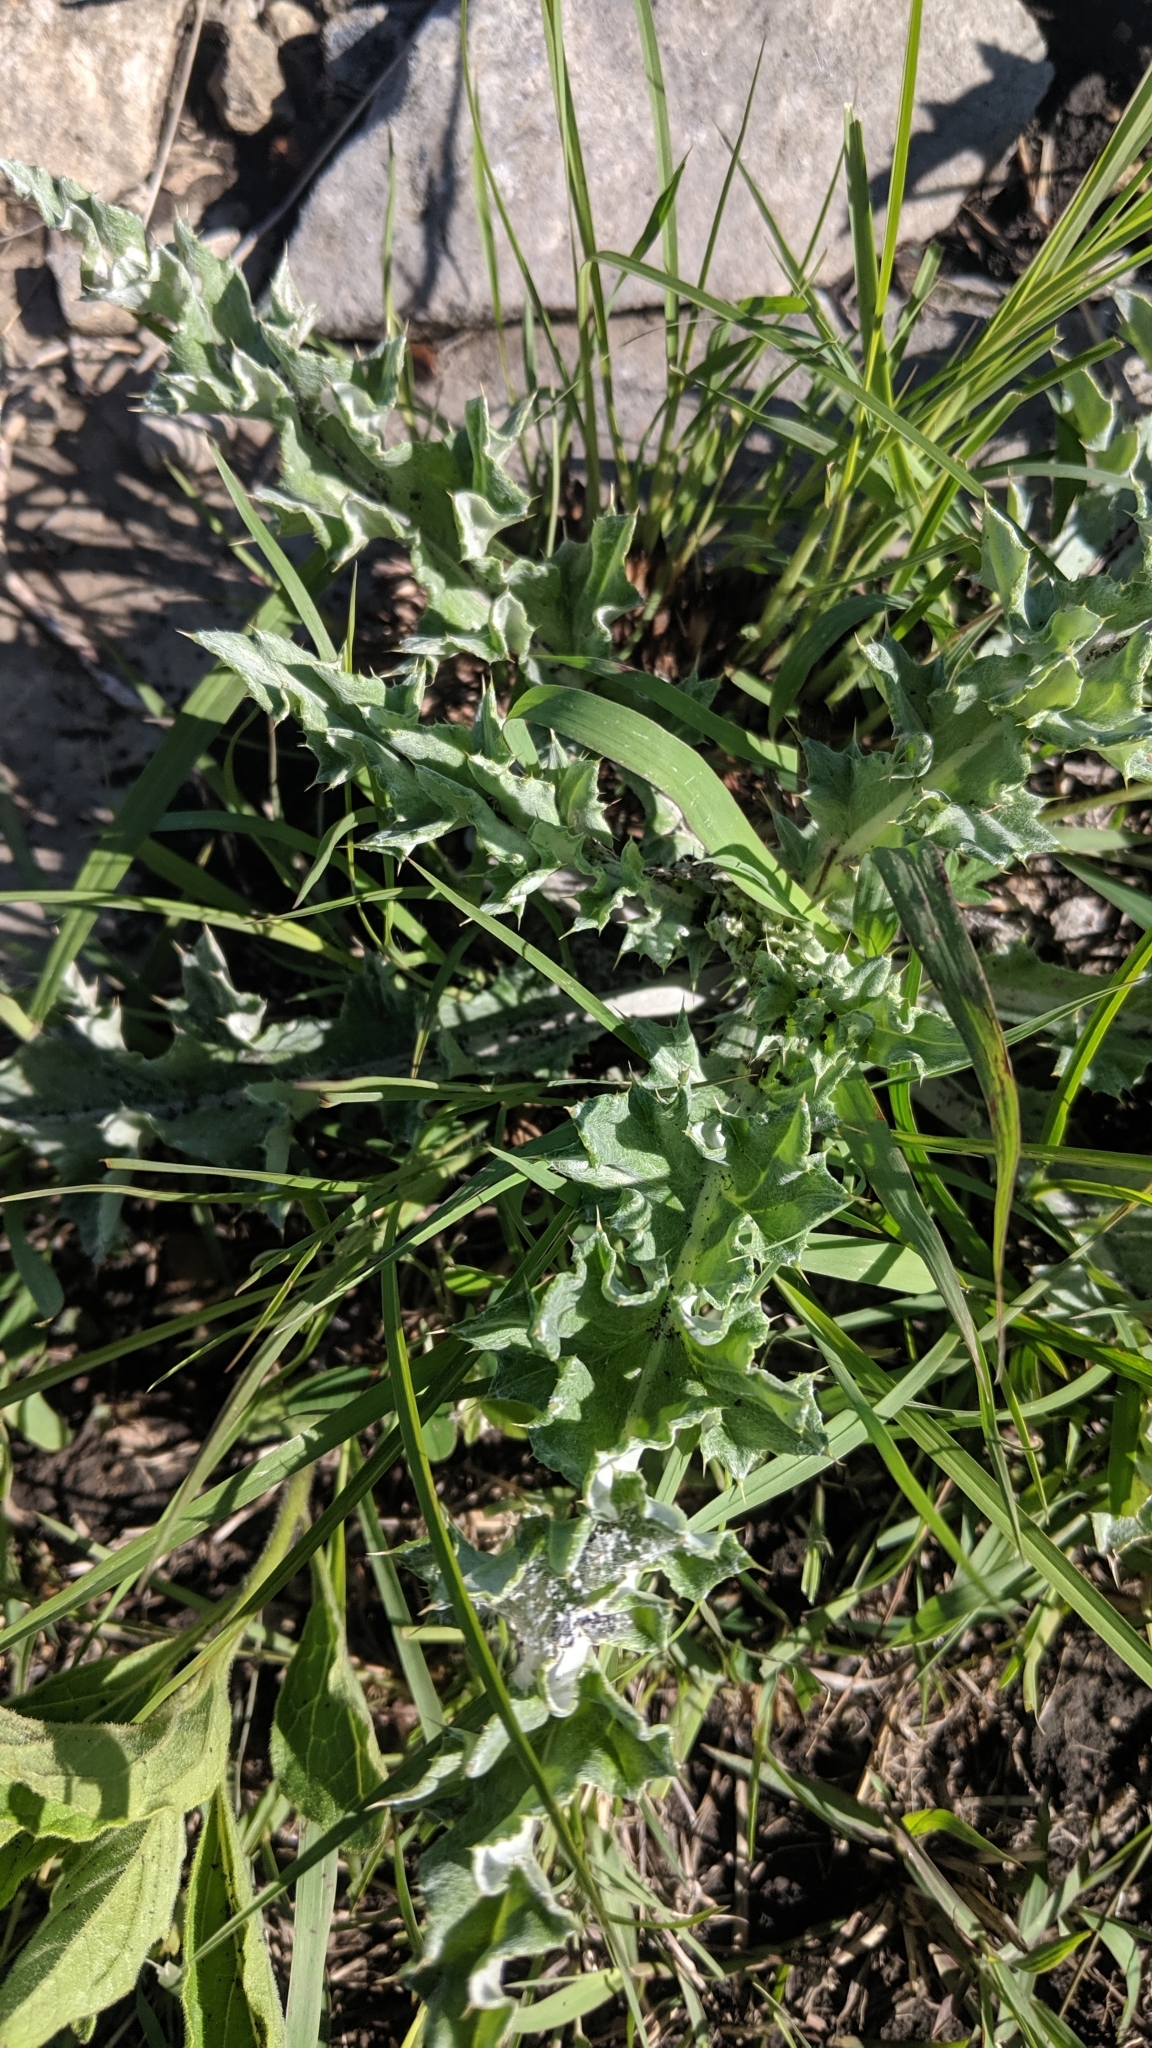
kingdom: Plantae
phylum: Tracheophyta
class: Magnoliopsida
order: Asterales
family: Asteraceae
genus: Cirsium
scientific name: Cirsium undulatum
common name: Pasture thistle
